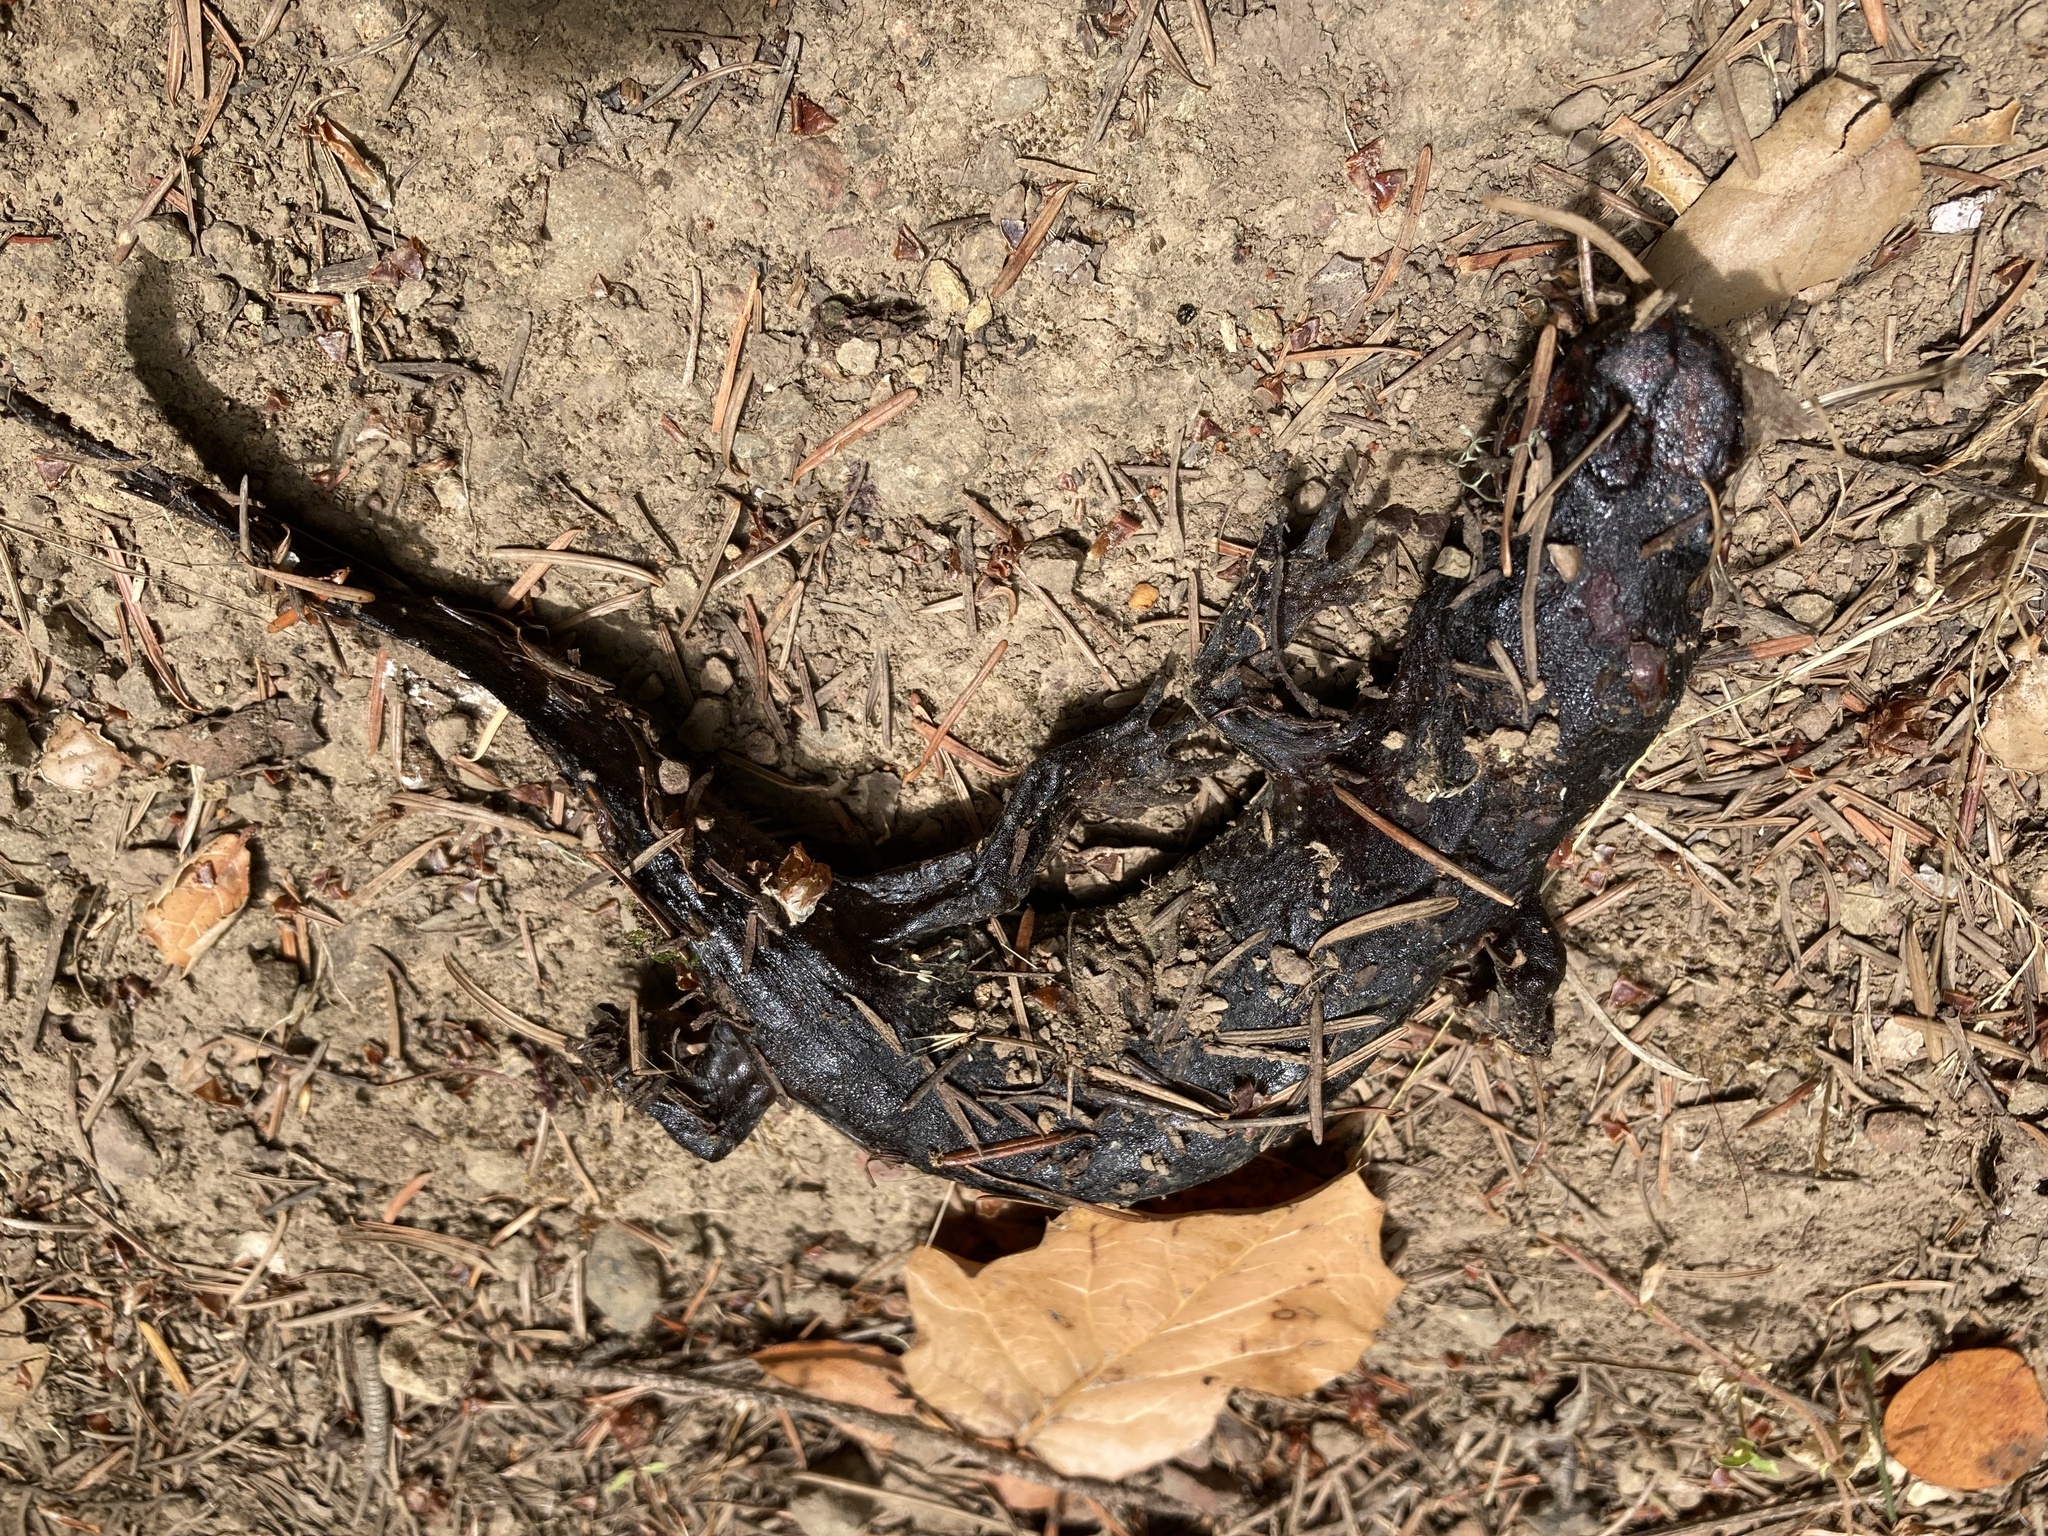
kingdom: Animalia
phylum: Chordata
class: Amphibia
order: Caudata
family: Ambystomatidae
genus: Dicamptodon
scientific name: Dicamptodon ensatus
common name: California giant salamander
